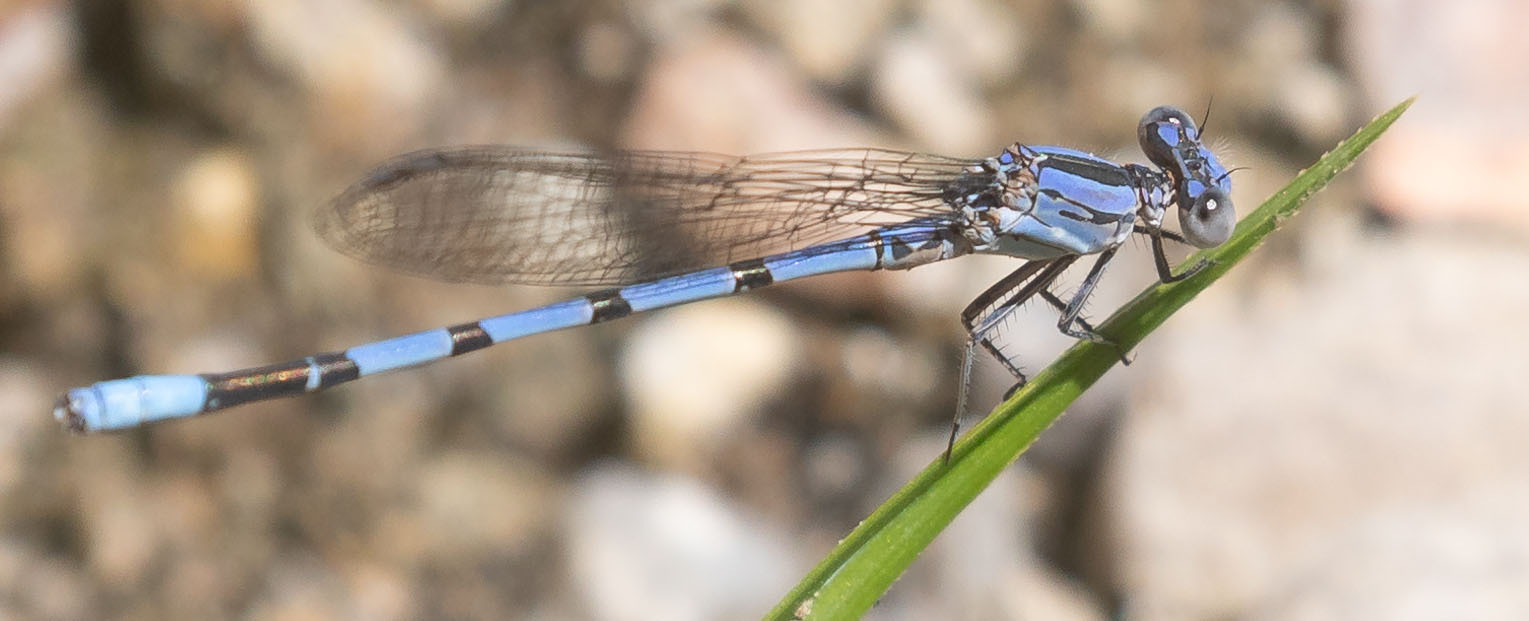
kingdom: Animalia
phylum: Arthropoda
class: Insecta
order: Odonata
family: Coenagrionidae
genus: Argia
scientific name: Argia agrioides
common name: California dancer
